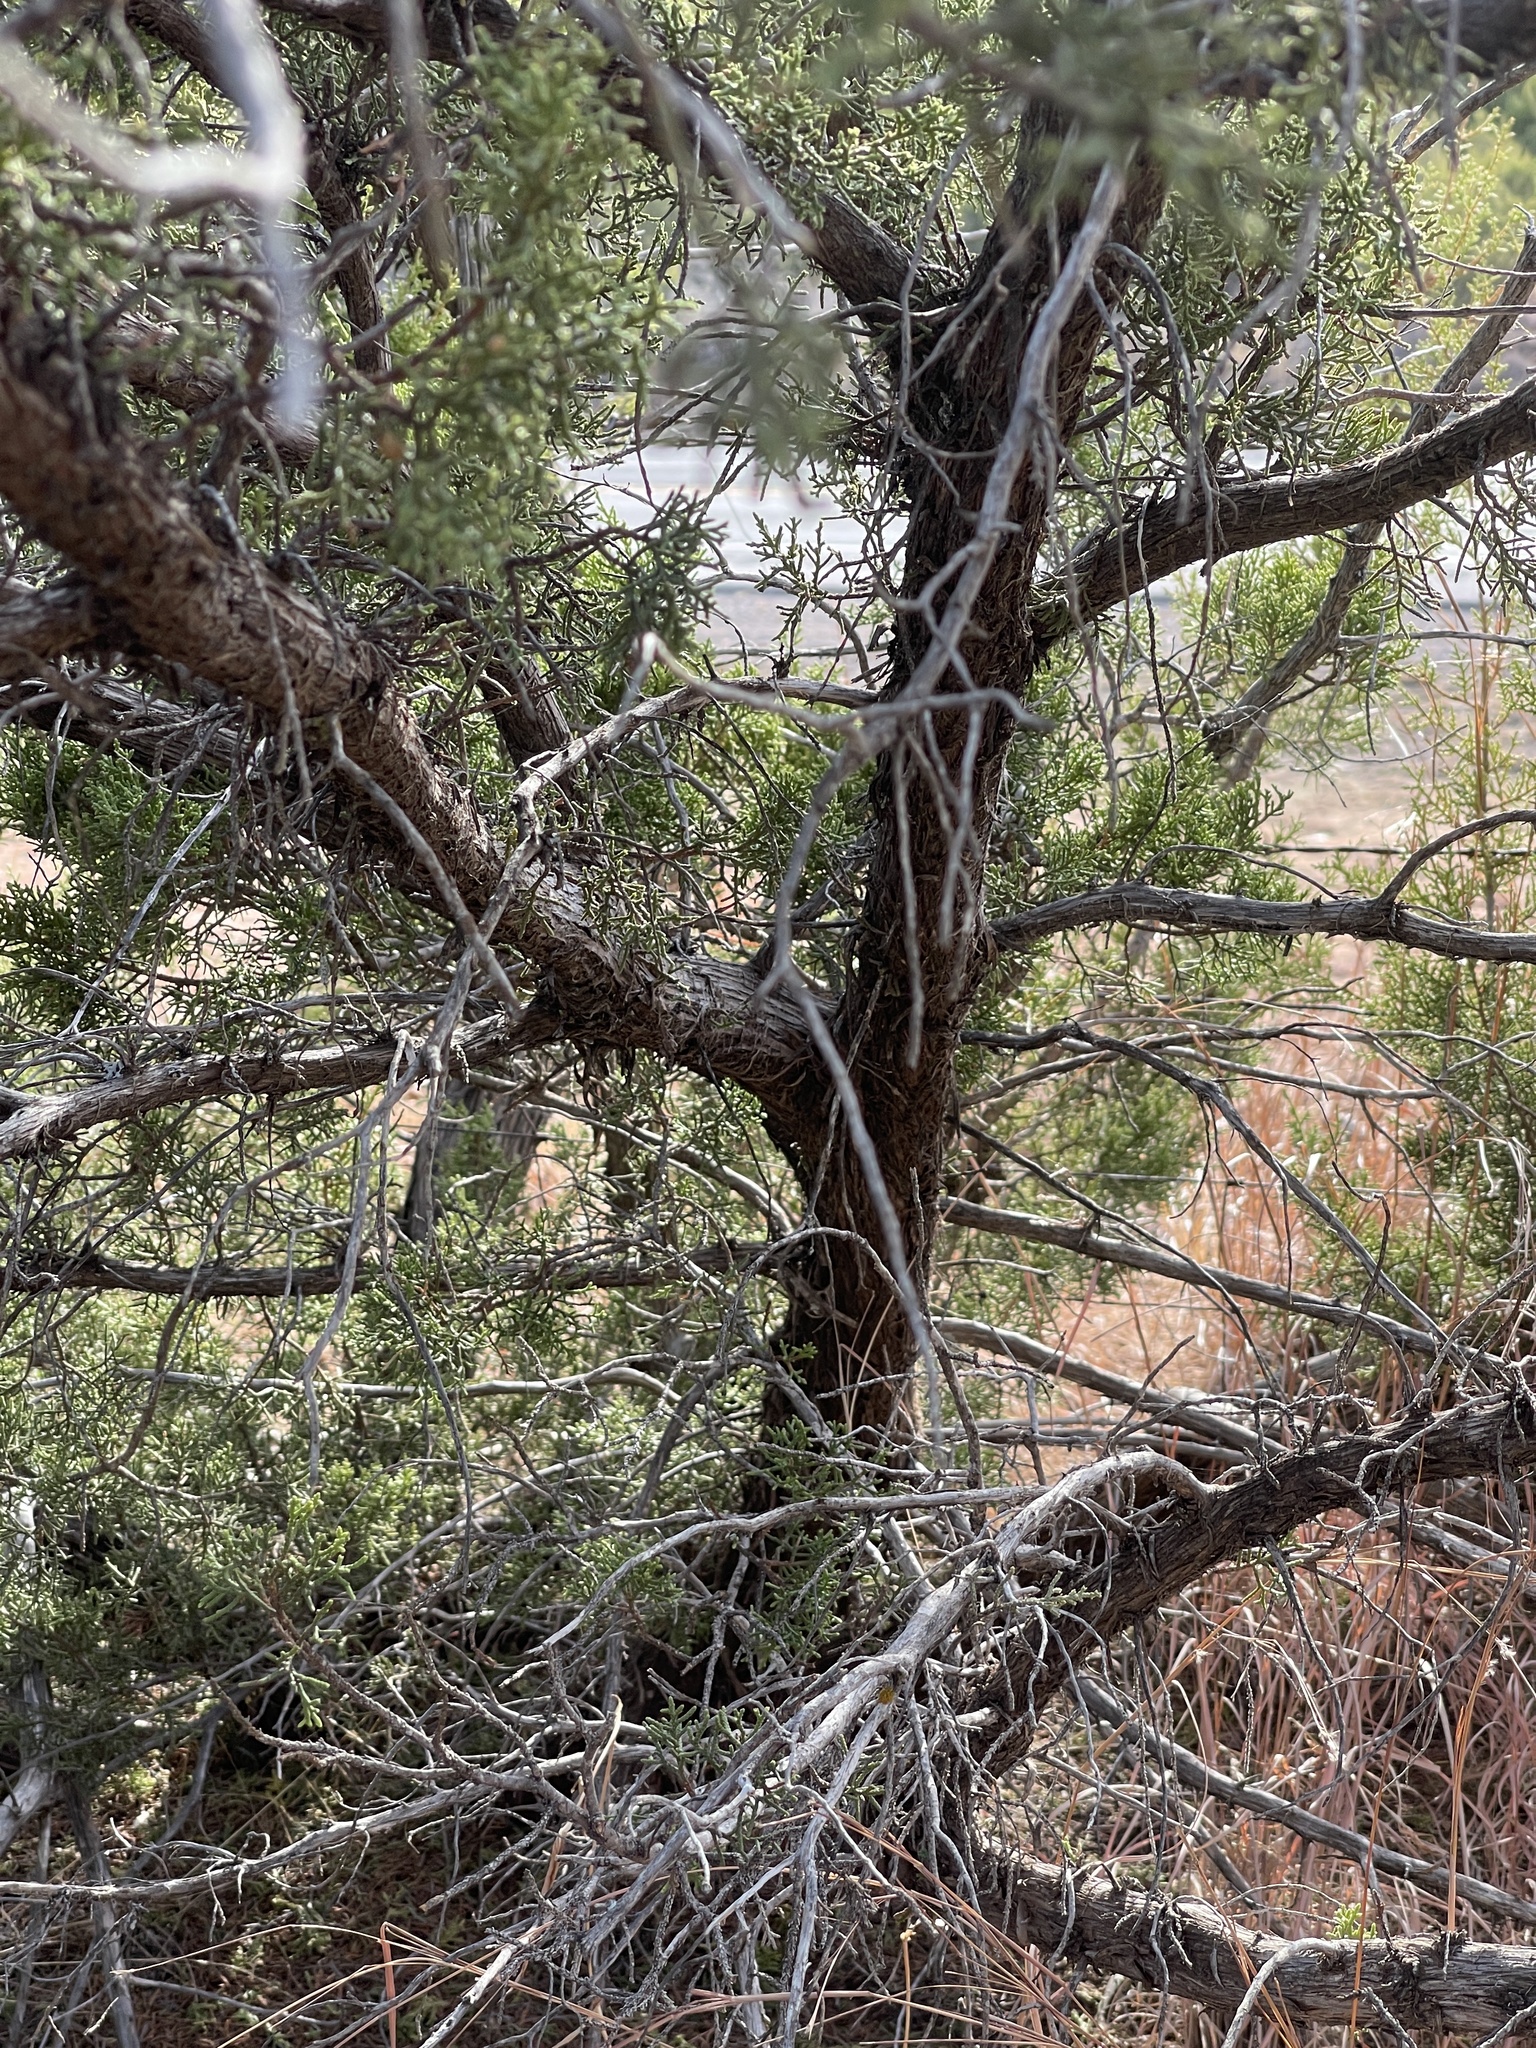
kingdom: Plantae
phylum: Tracheophyta
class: Pinopsida
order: Pinales
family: Cupressaceae
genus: Juniperus
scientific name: Juniperus ashei
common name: Mexican juniper
